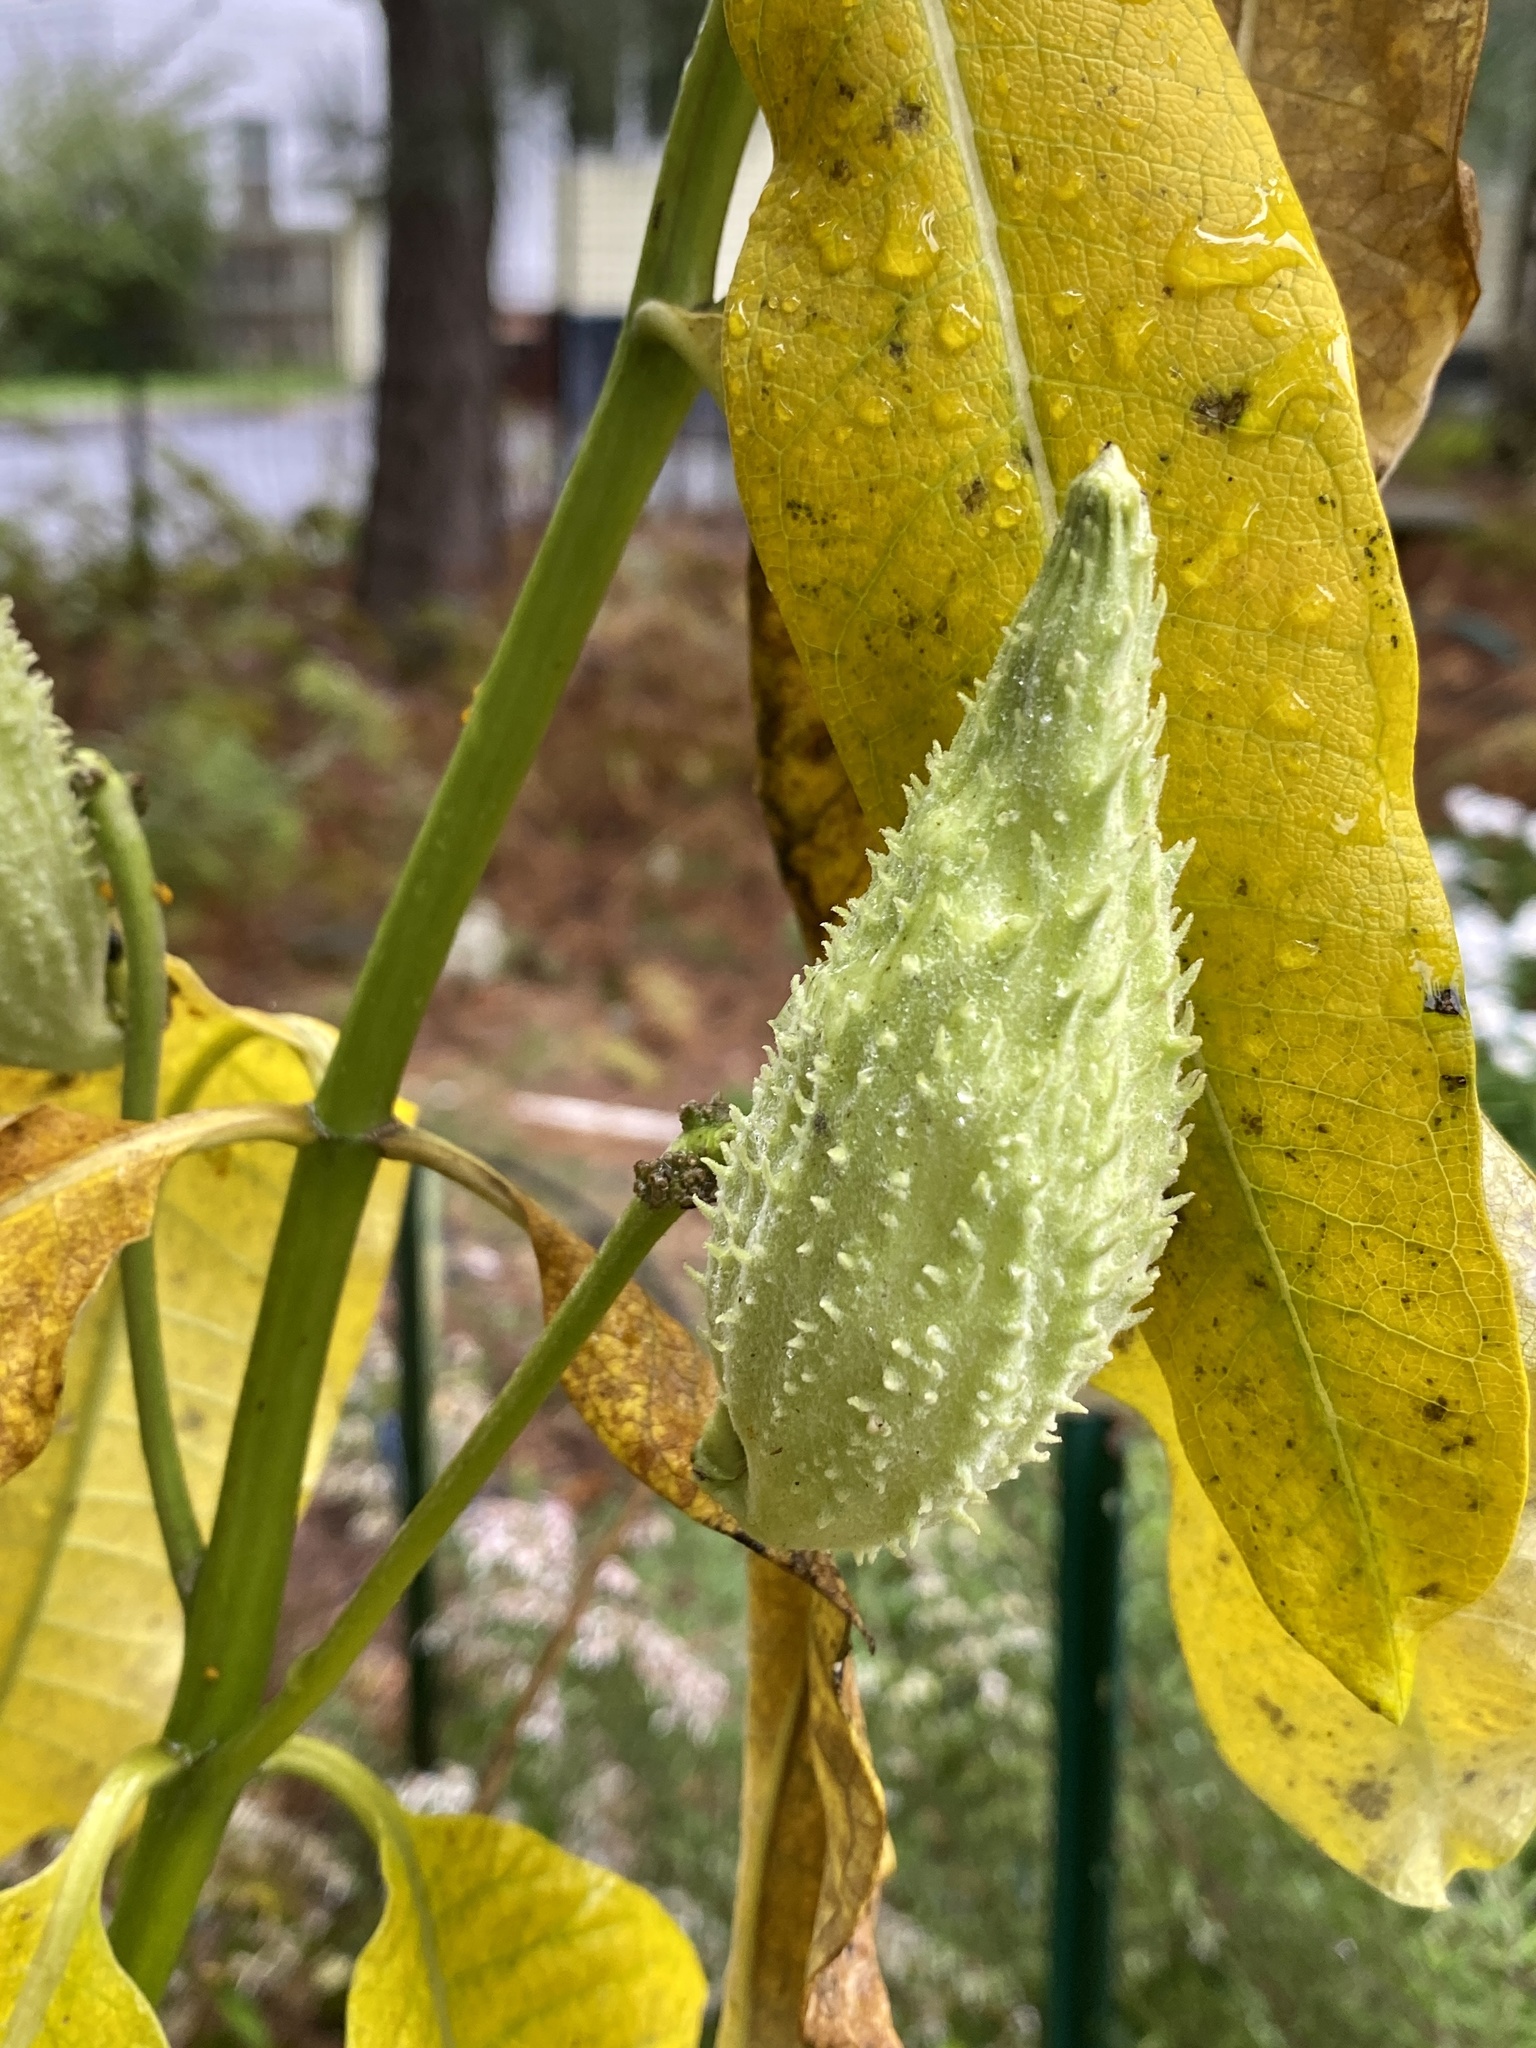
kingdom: Plantae
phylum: Tracheophyta
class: Magnoliopsida
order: Gentianales
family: Apocynaceae
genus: Asclepias
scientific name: Asclepias syriaca
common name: Common milkweed
